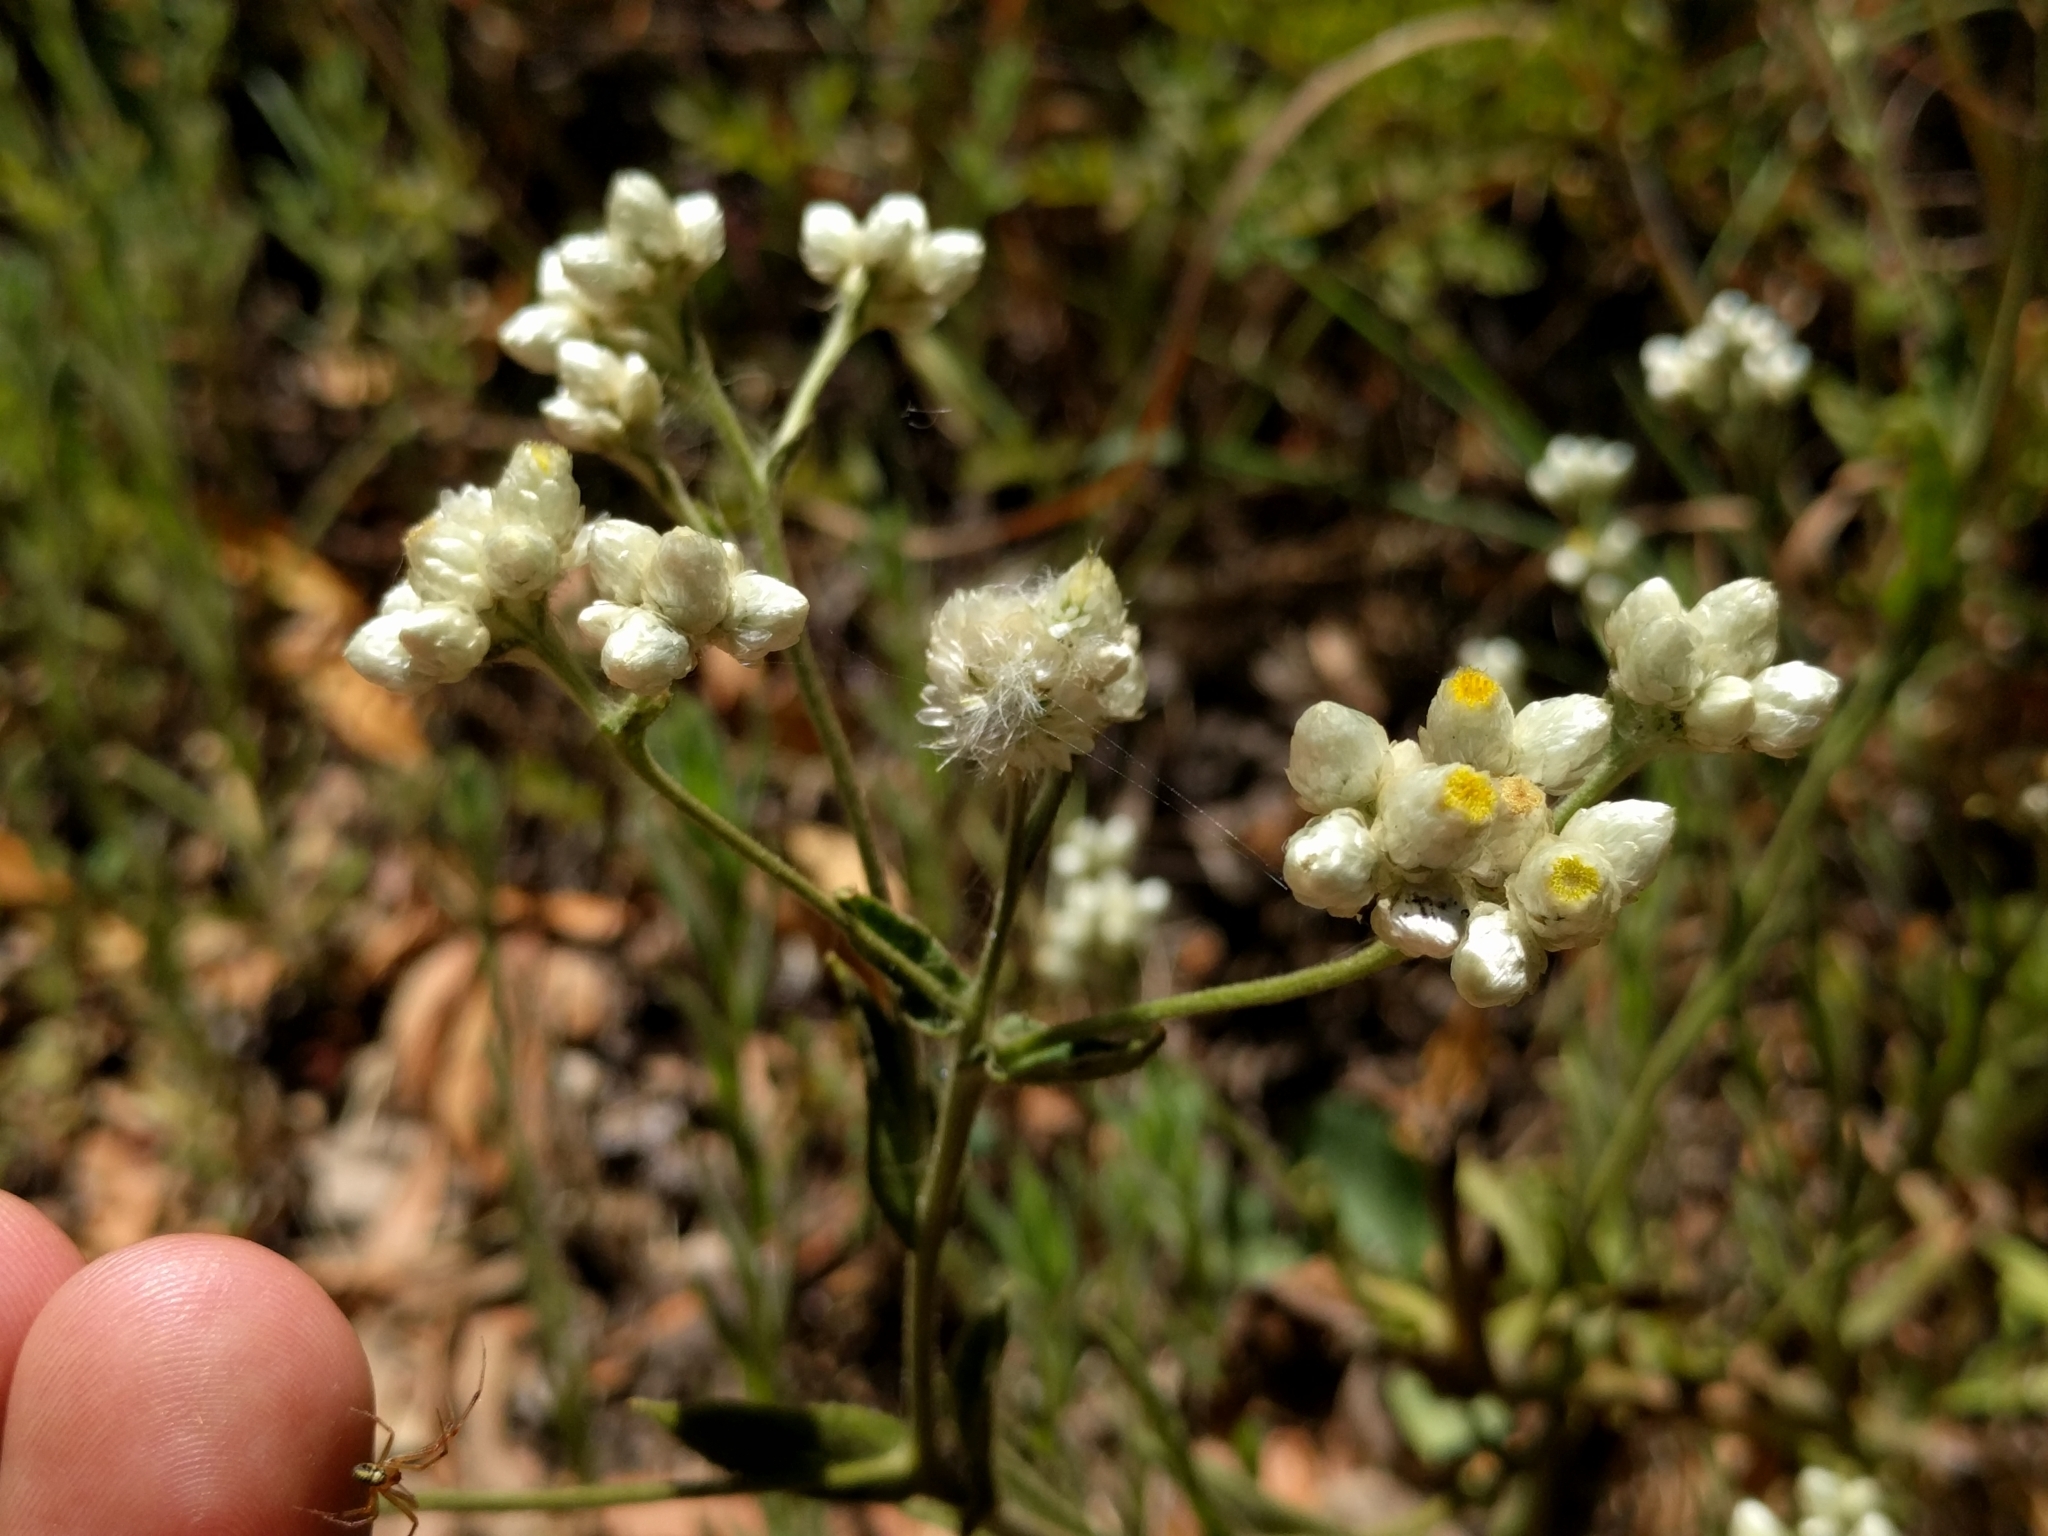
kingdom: Plantae
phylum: Tracheophyta
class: Magnoliopsida
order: Asterales
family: Asteraceae
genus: Pseudognaphalium
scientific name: Pseudognaphalium californicum
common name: California rabbit-tobacco
